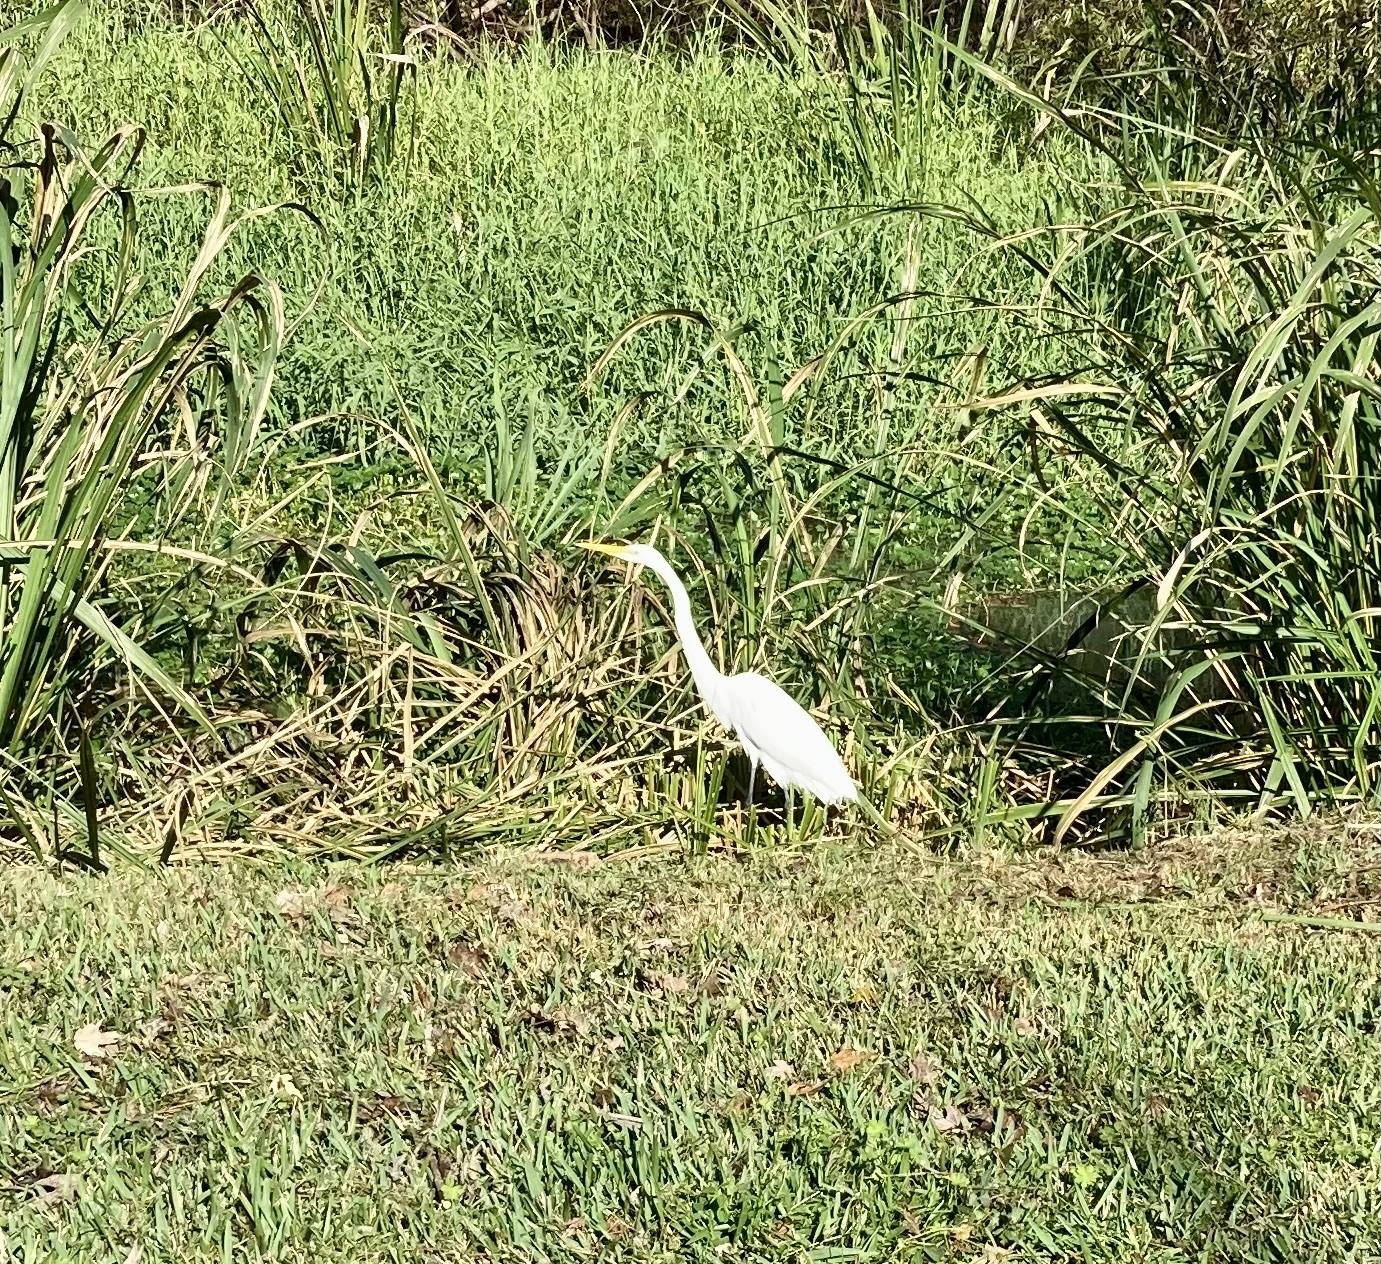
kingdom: Animalia
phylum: Chordata
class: Aves
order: Pelecaniformes
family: Ardeidae
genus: Ardea
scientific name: Ardea alba
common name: Great egret
